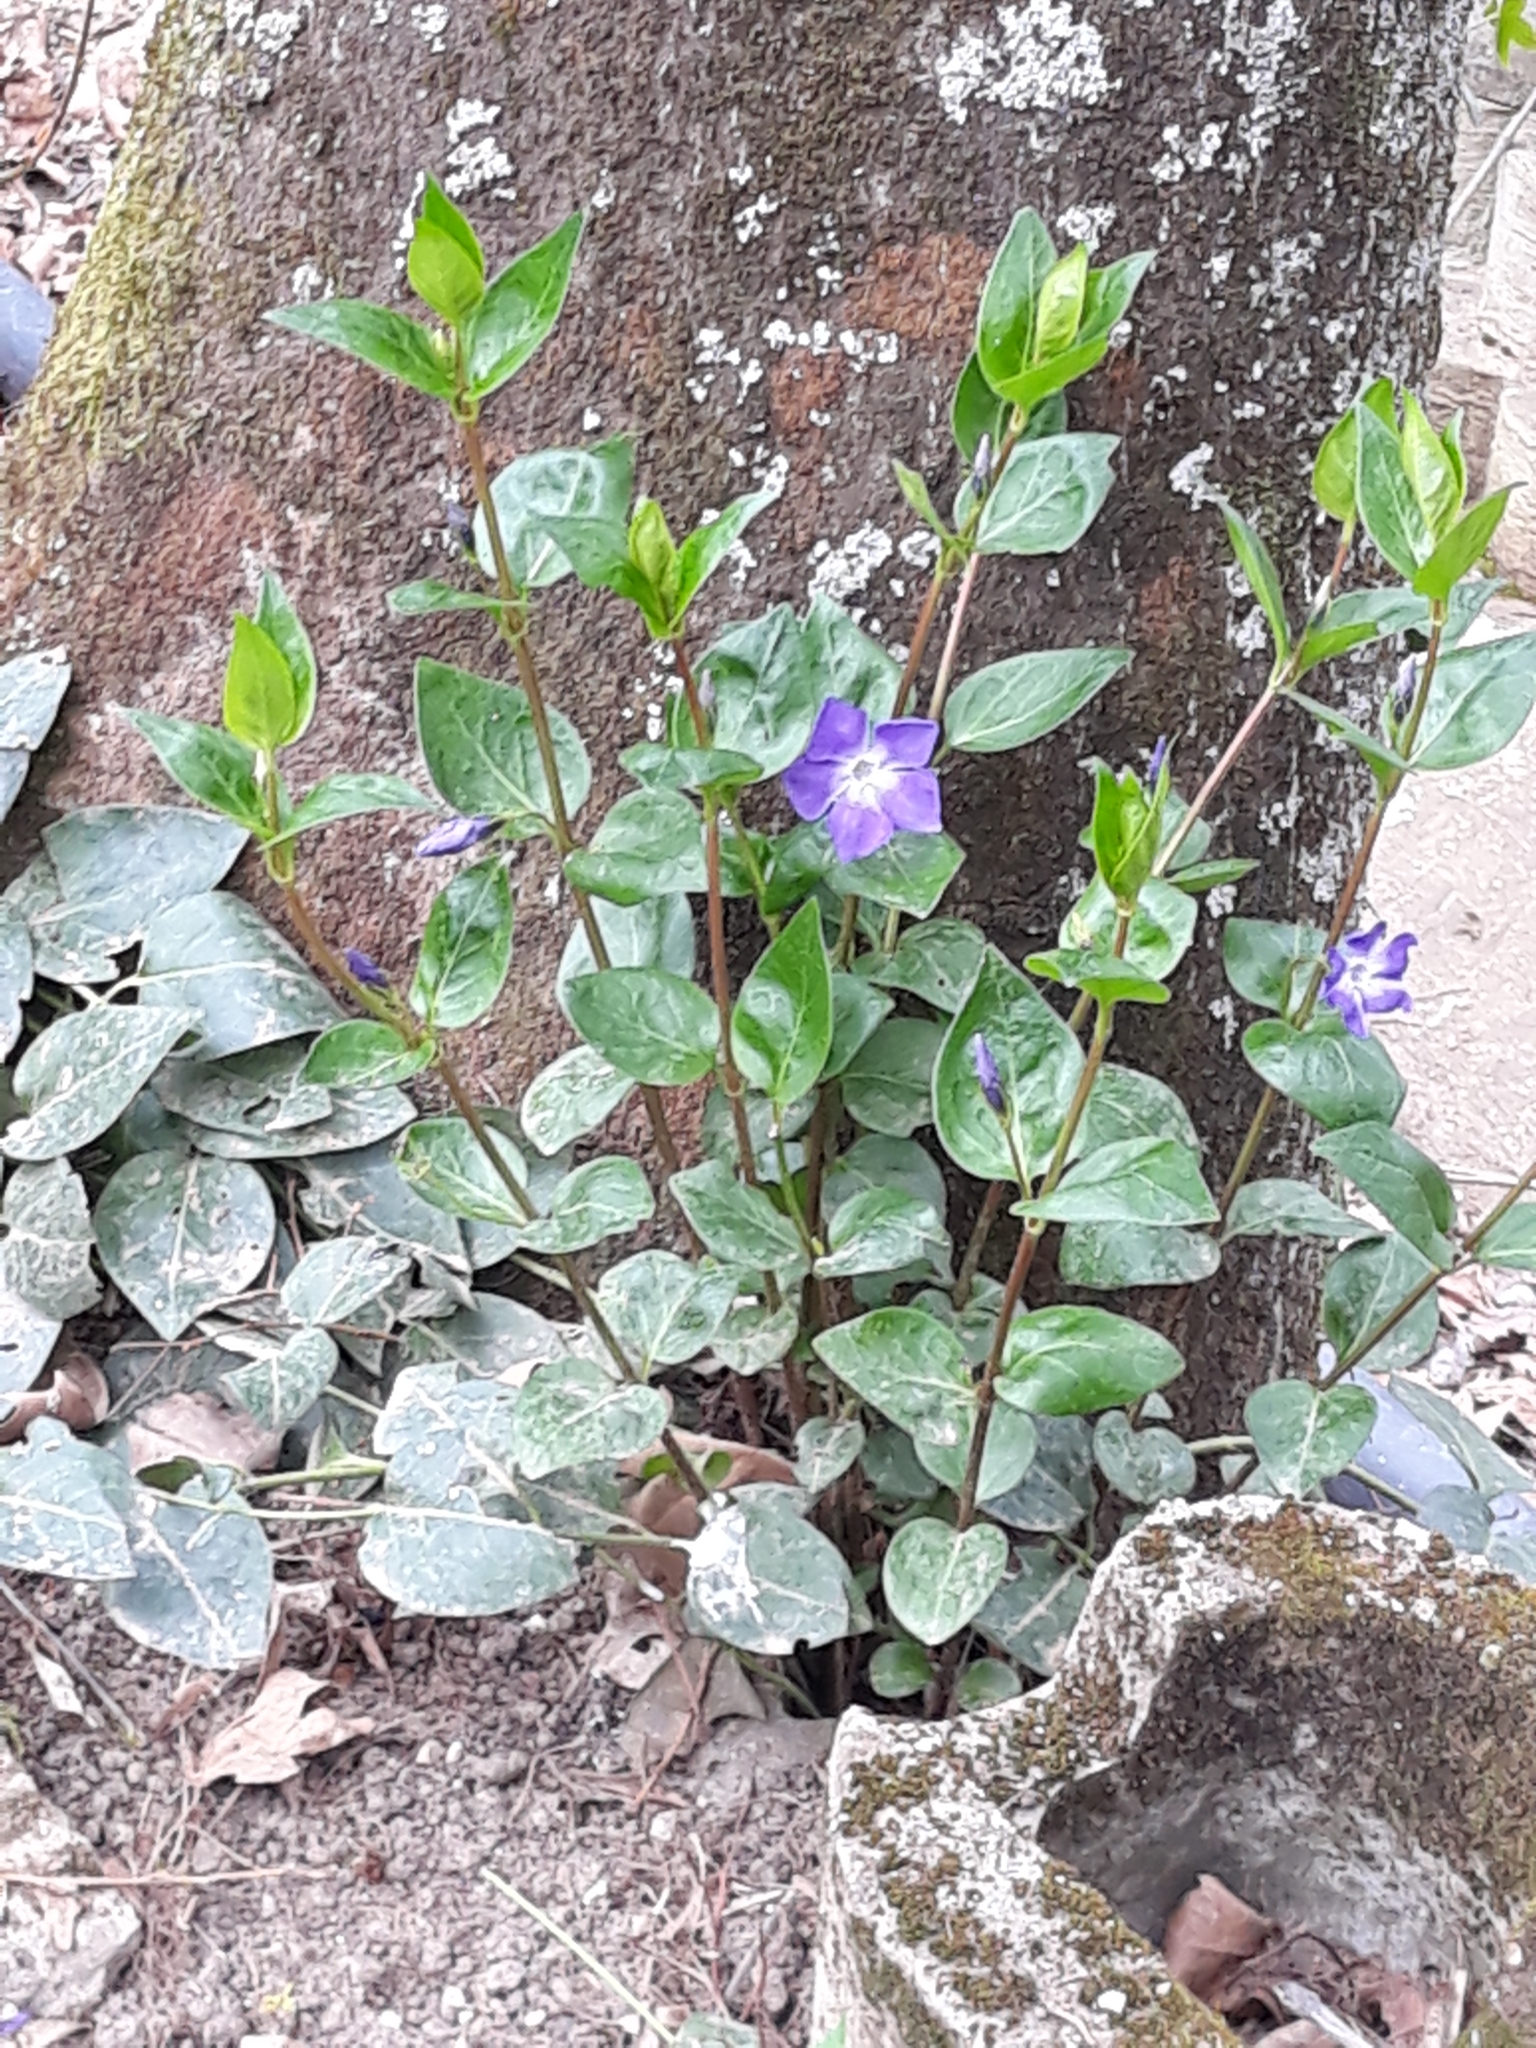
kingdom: Plantae
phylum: Tracheophyta
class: Magnoliopsida
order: Gentianales
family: Apocynaceae
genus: Vinca
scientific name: Vinca major
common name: Greater periwinkle
